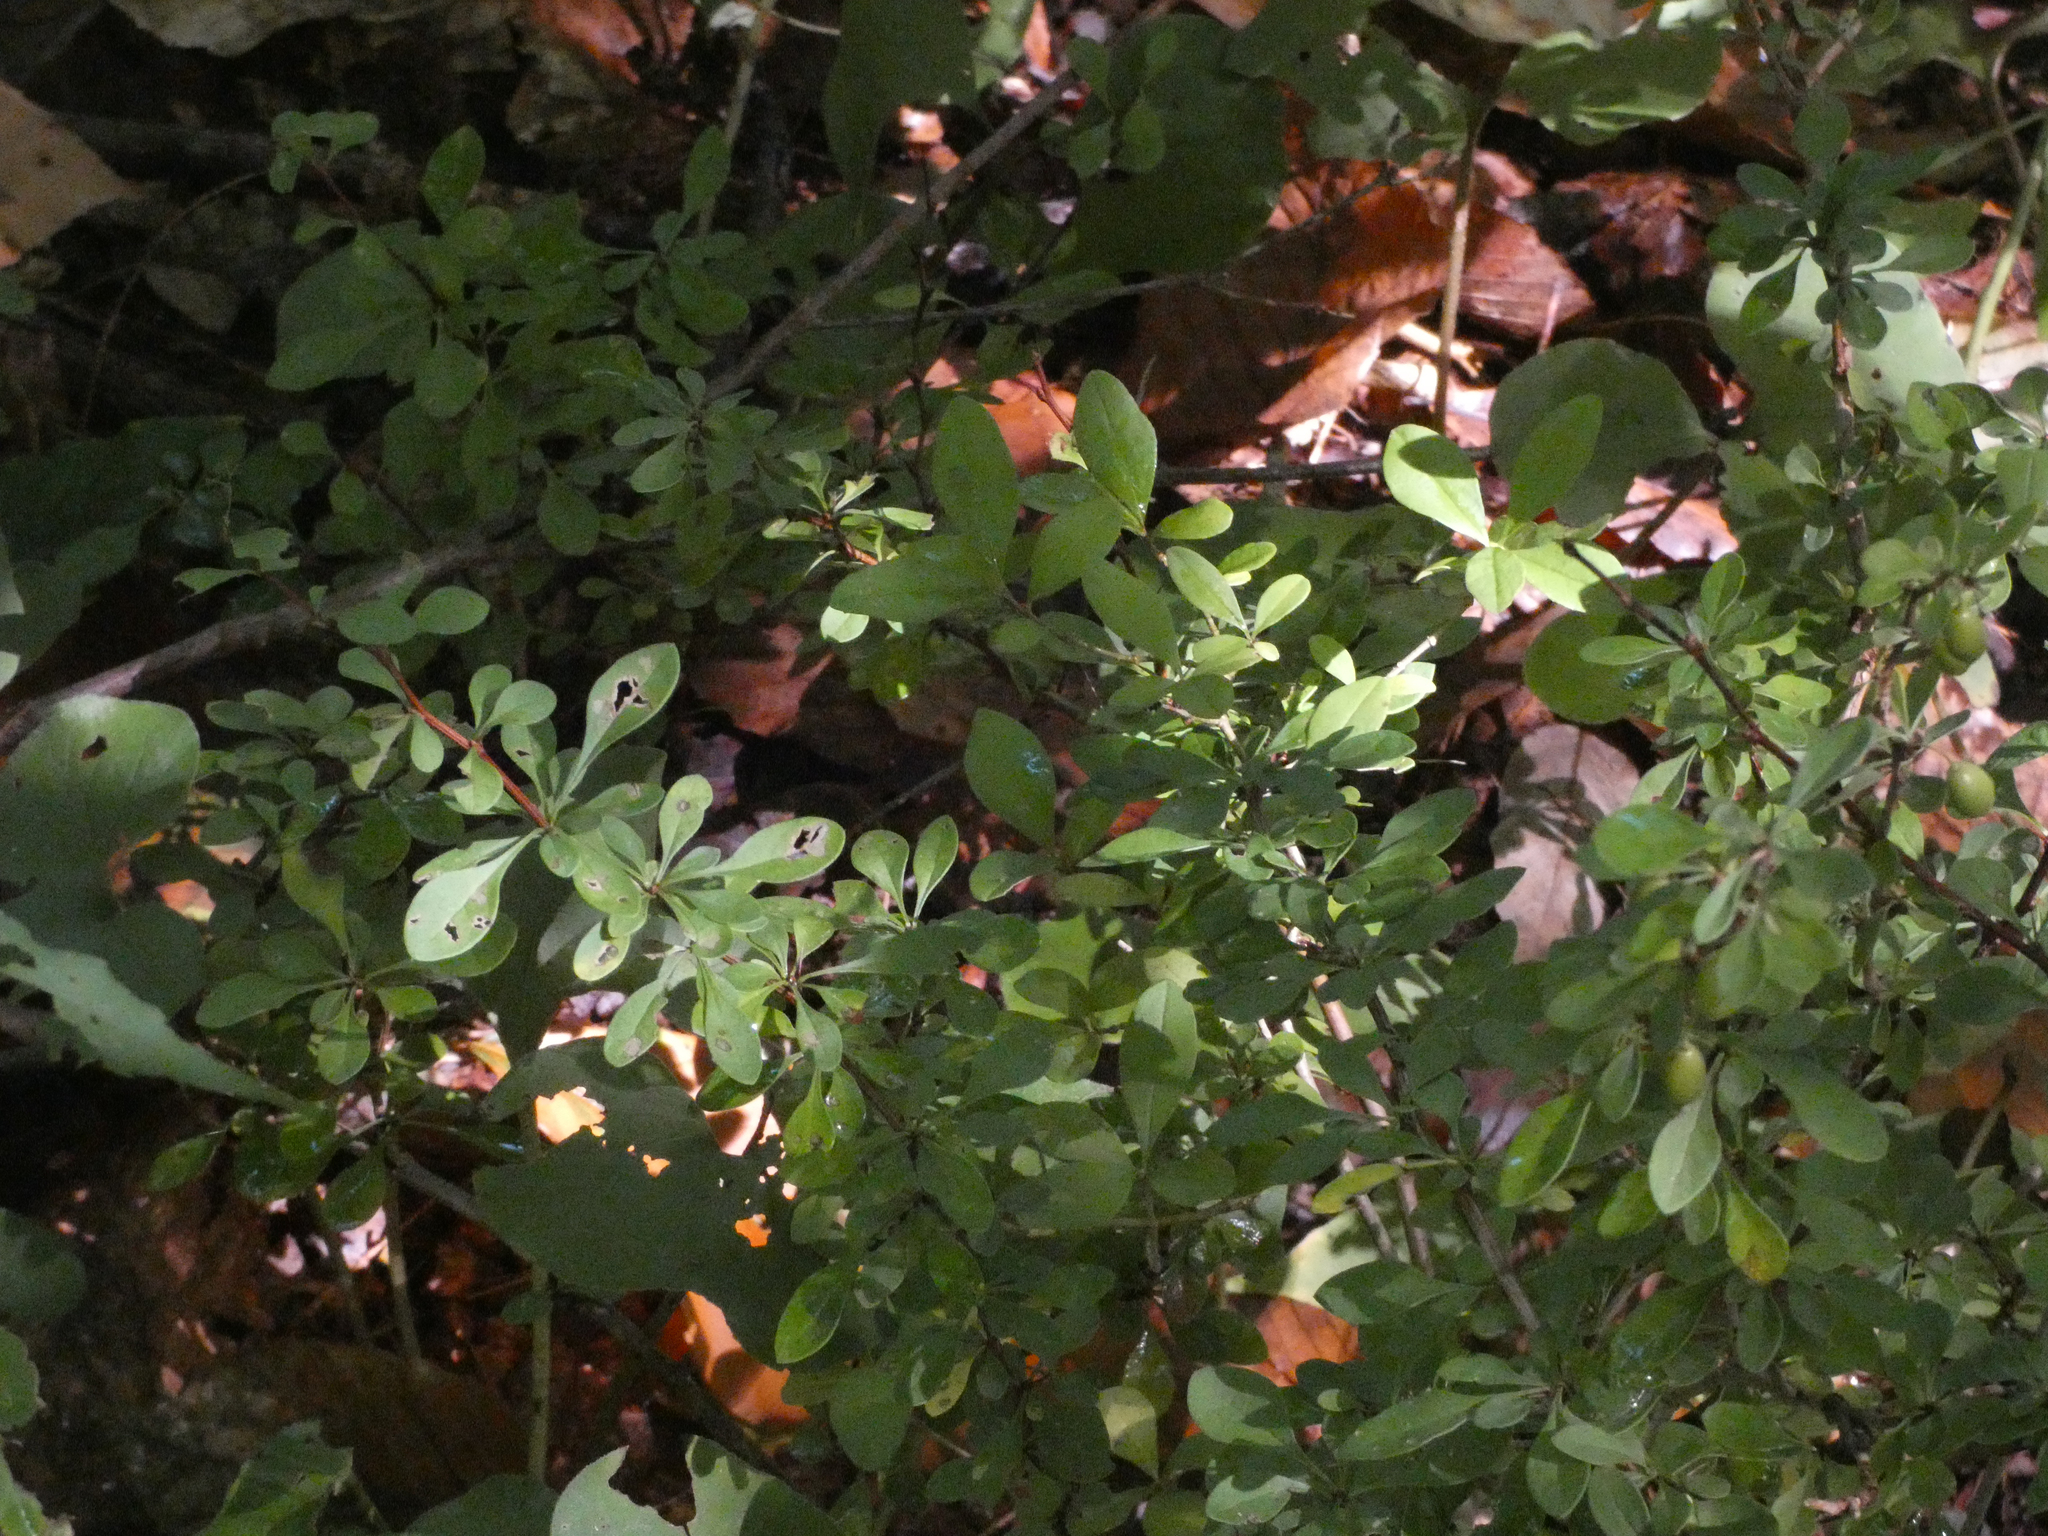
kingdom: Plantae
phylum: Tracheophyta
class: Magnoliopsida
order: Ranunculales
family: Berberidaceae
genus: Berberis
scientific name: Berberis thunbergii
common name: Japanese barberry
